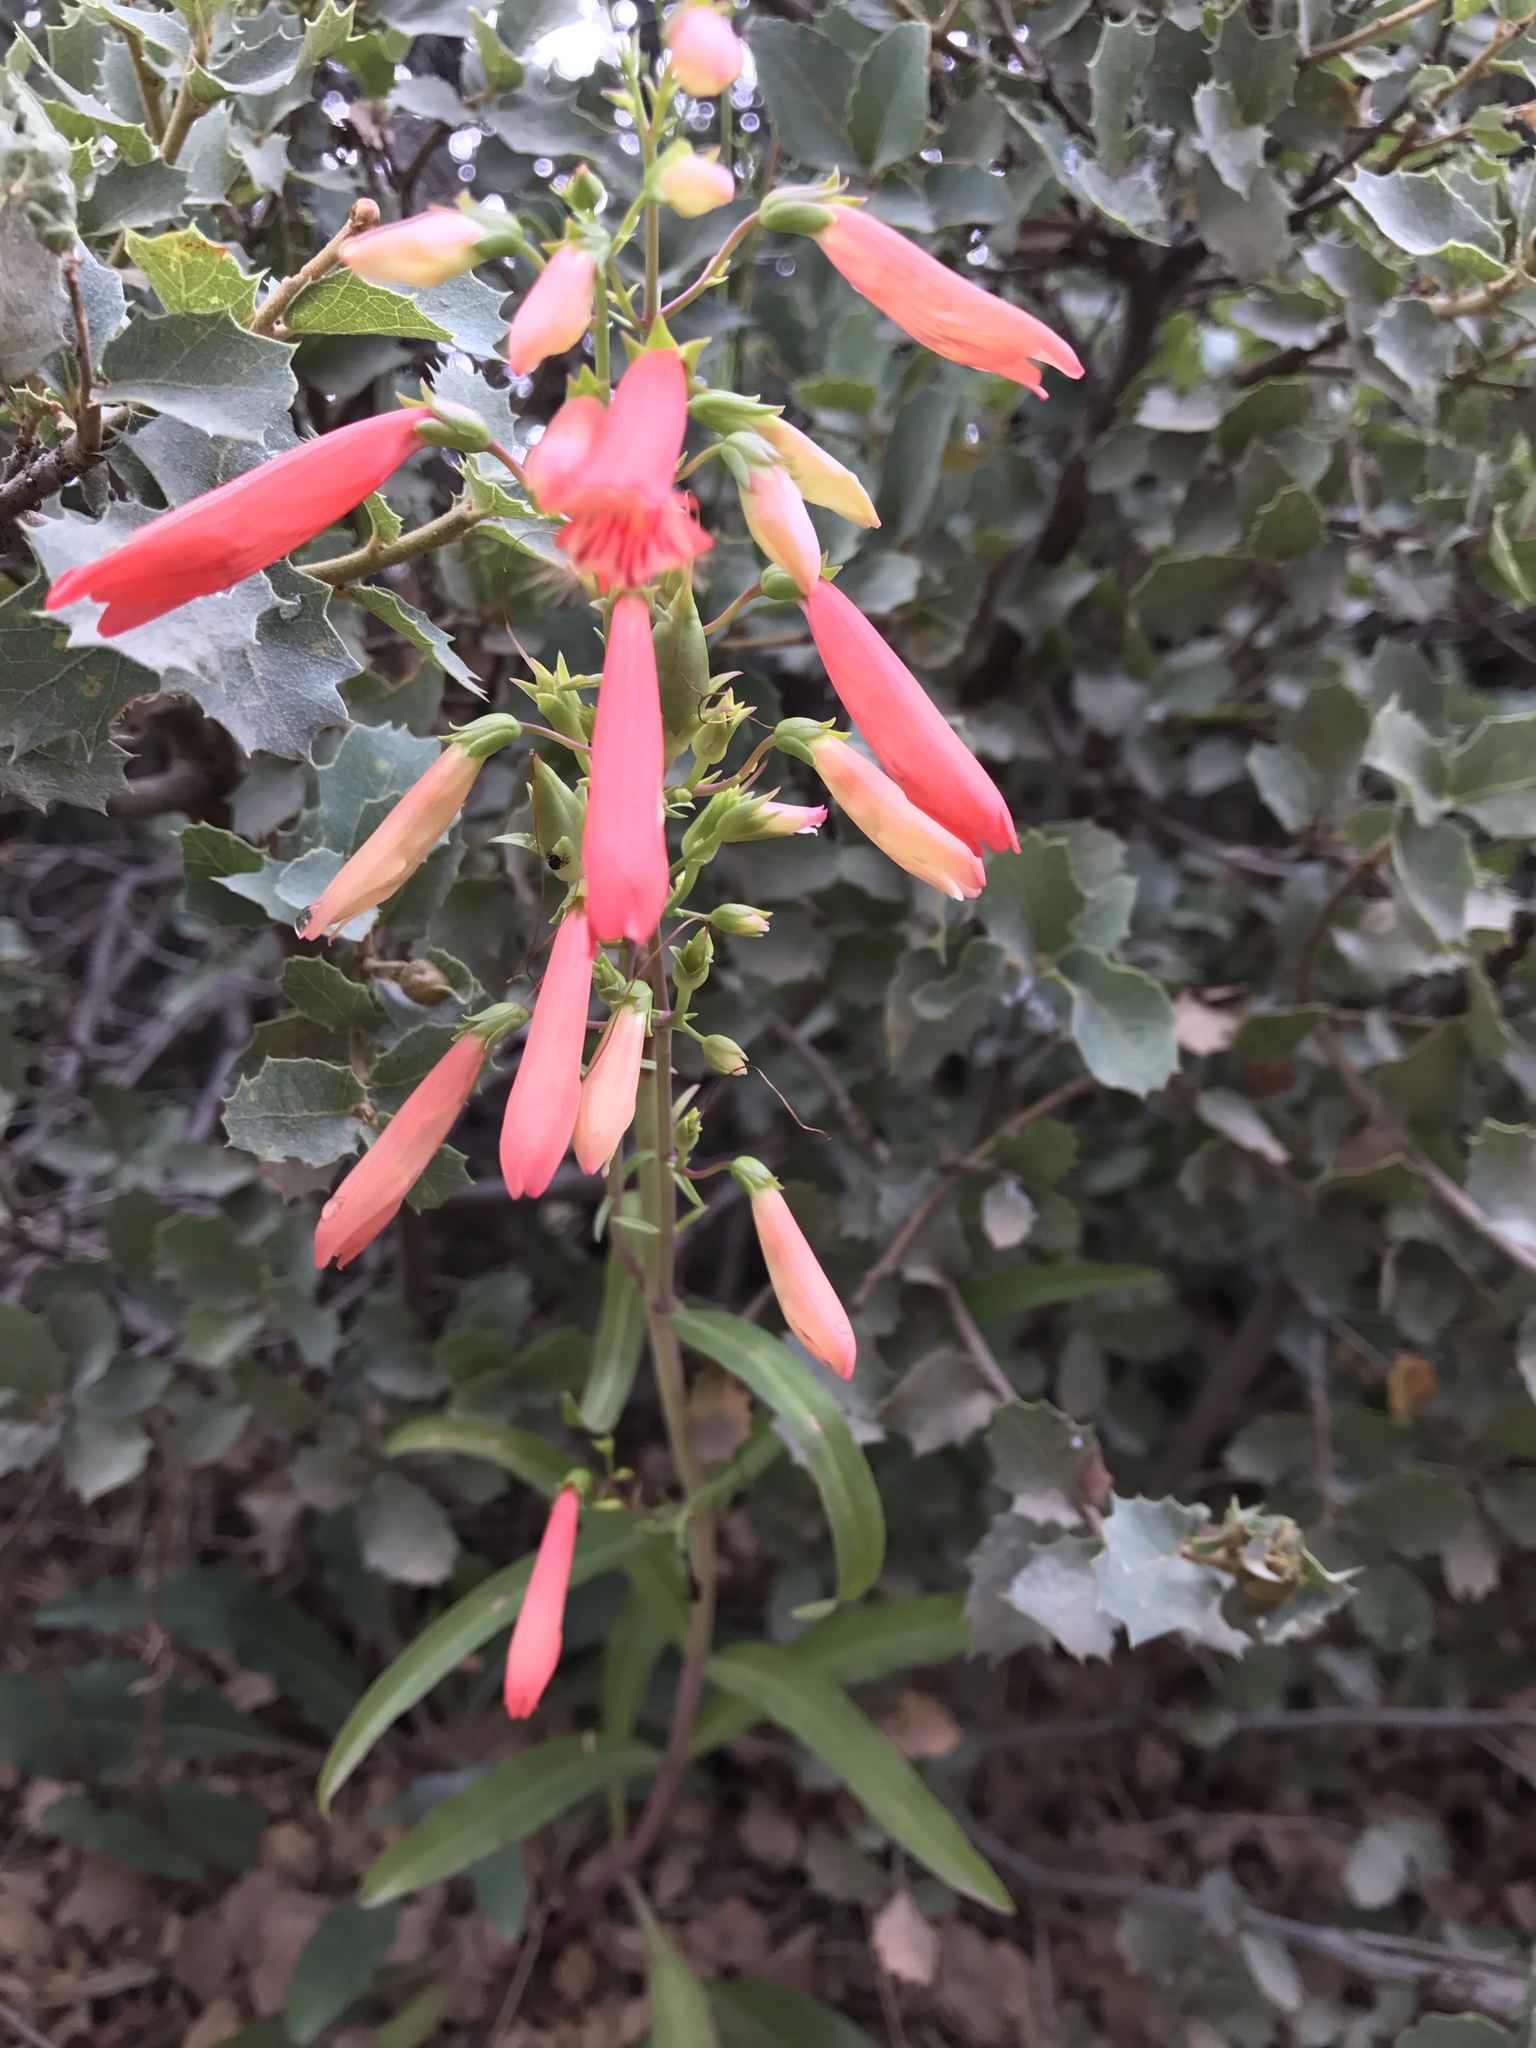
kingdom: Plantae
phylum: Tracheophyta
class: Magnoliopsida
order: Lamiales
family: Plantaginaceae
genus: Penstemon
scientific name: Penstemon barbatus
